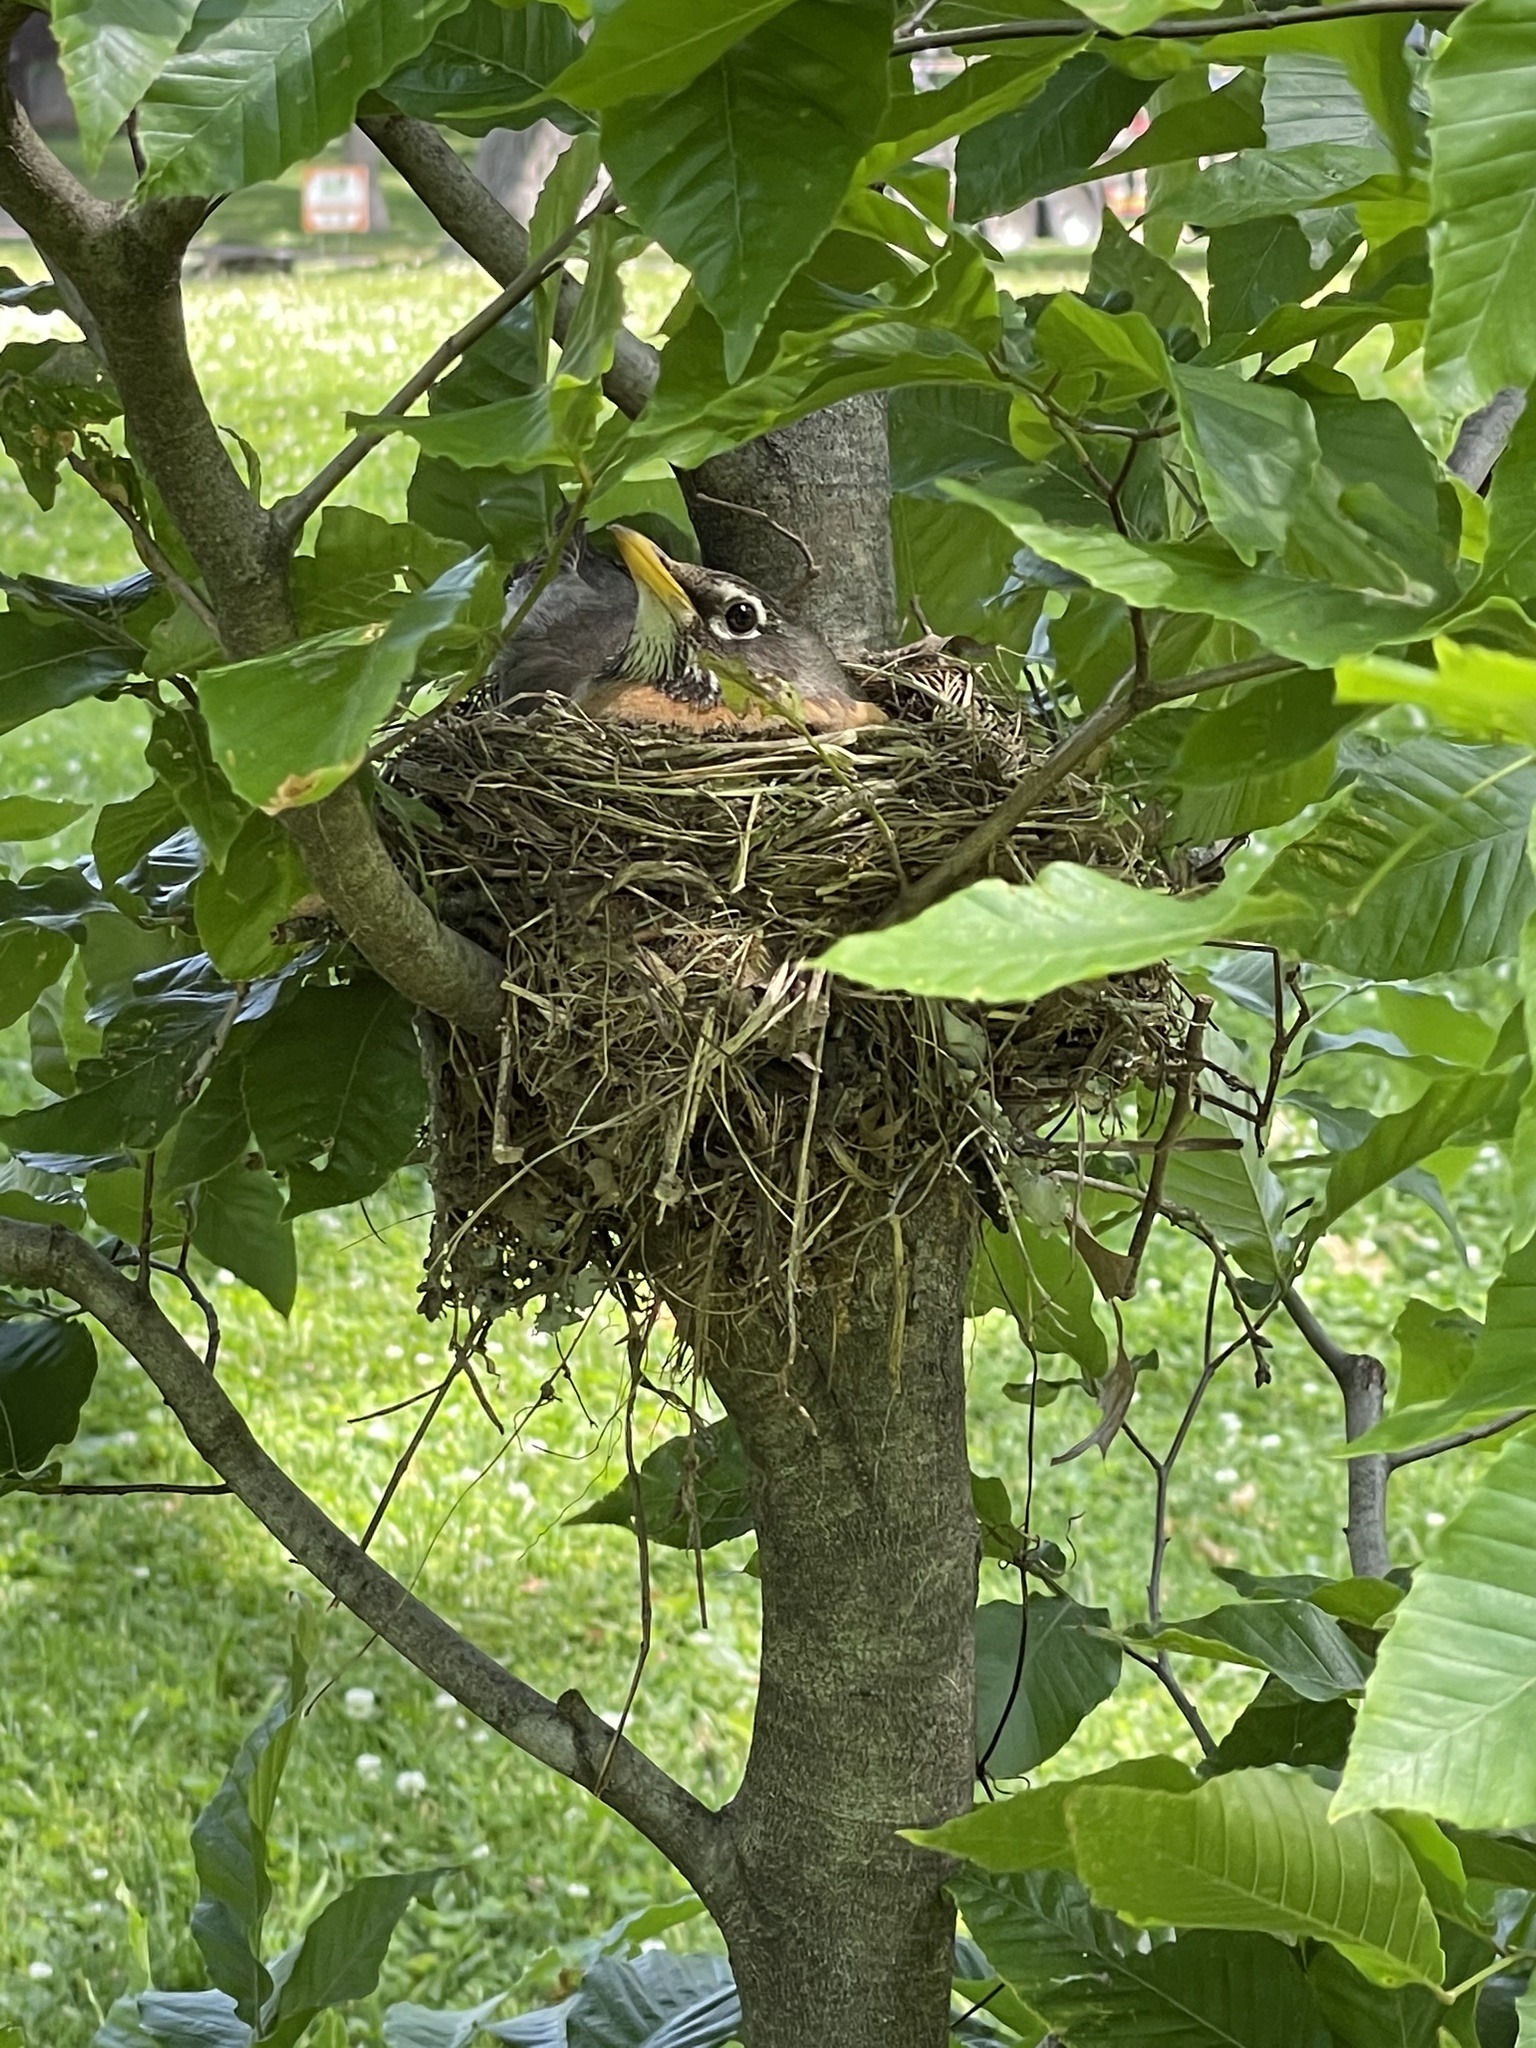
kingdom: Animalia
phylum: Chordata
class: Aves
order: Passeriformes
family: Turdidae
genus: Turdus
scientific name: Turdus migratorius
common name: American robin
